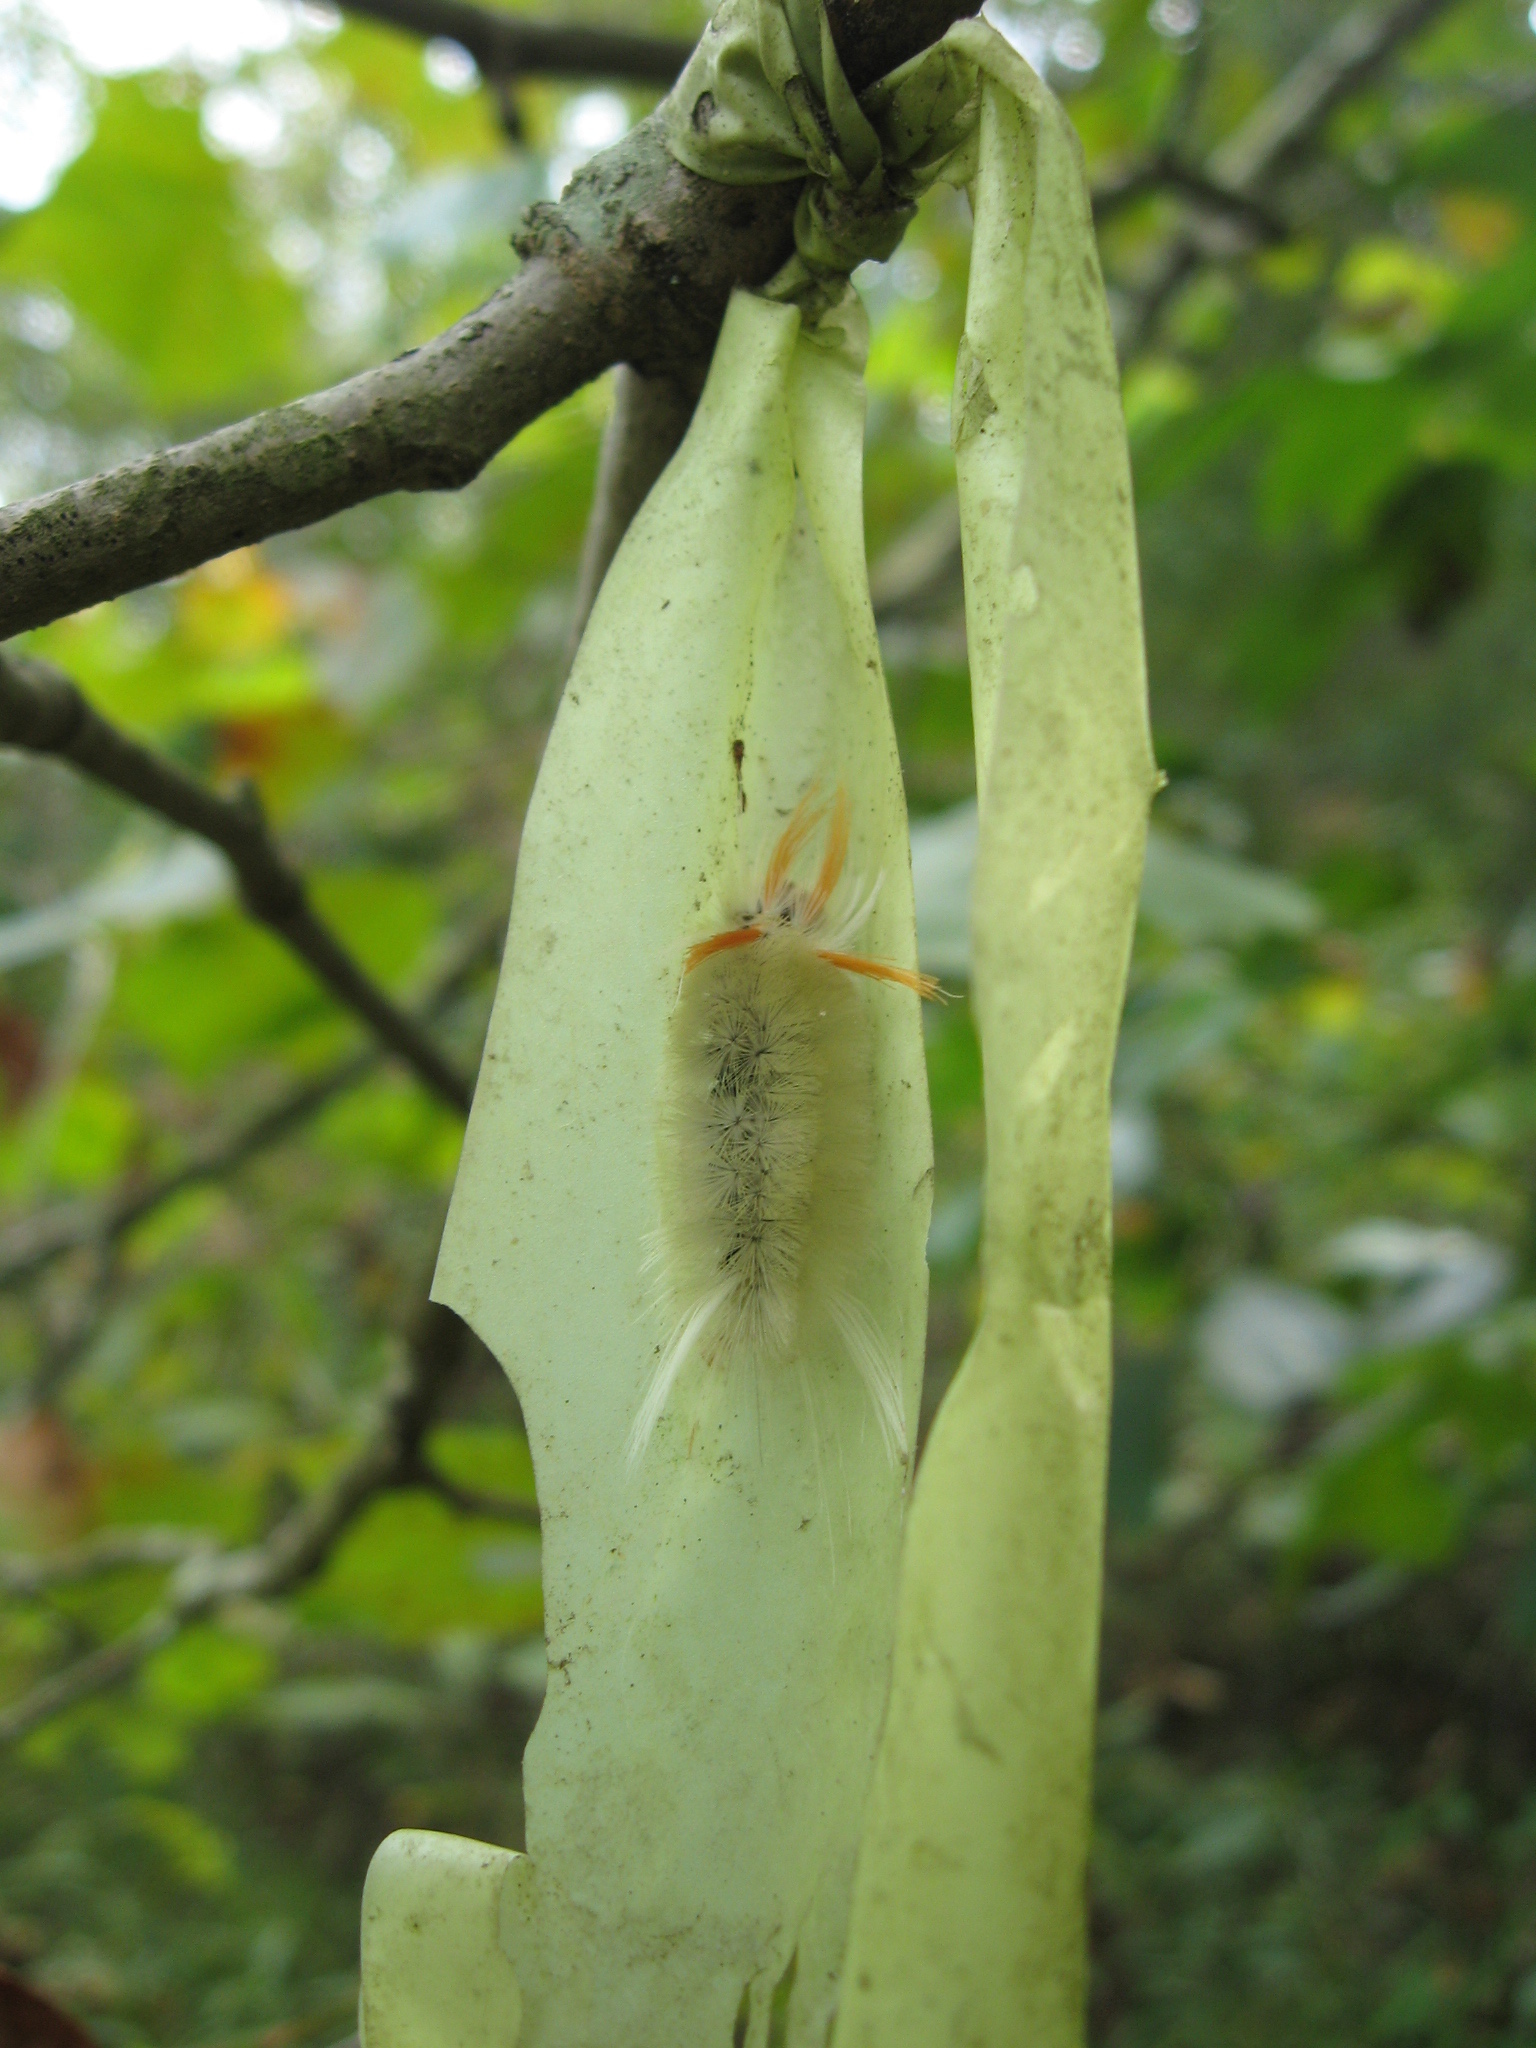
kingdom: Animalia
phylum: Arthropoda
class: Insecta
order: Lepidoptera
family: Erebidae
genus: Halysidota
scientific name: Halysidota harrisii
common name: Sycamore tussock moth
